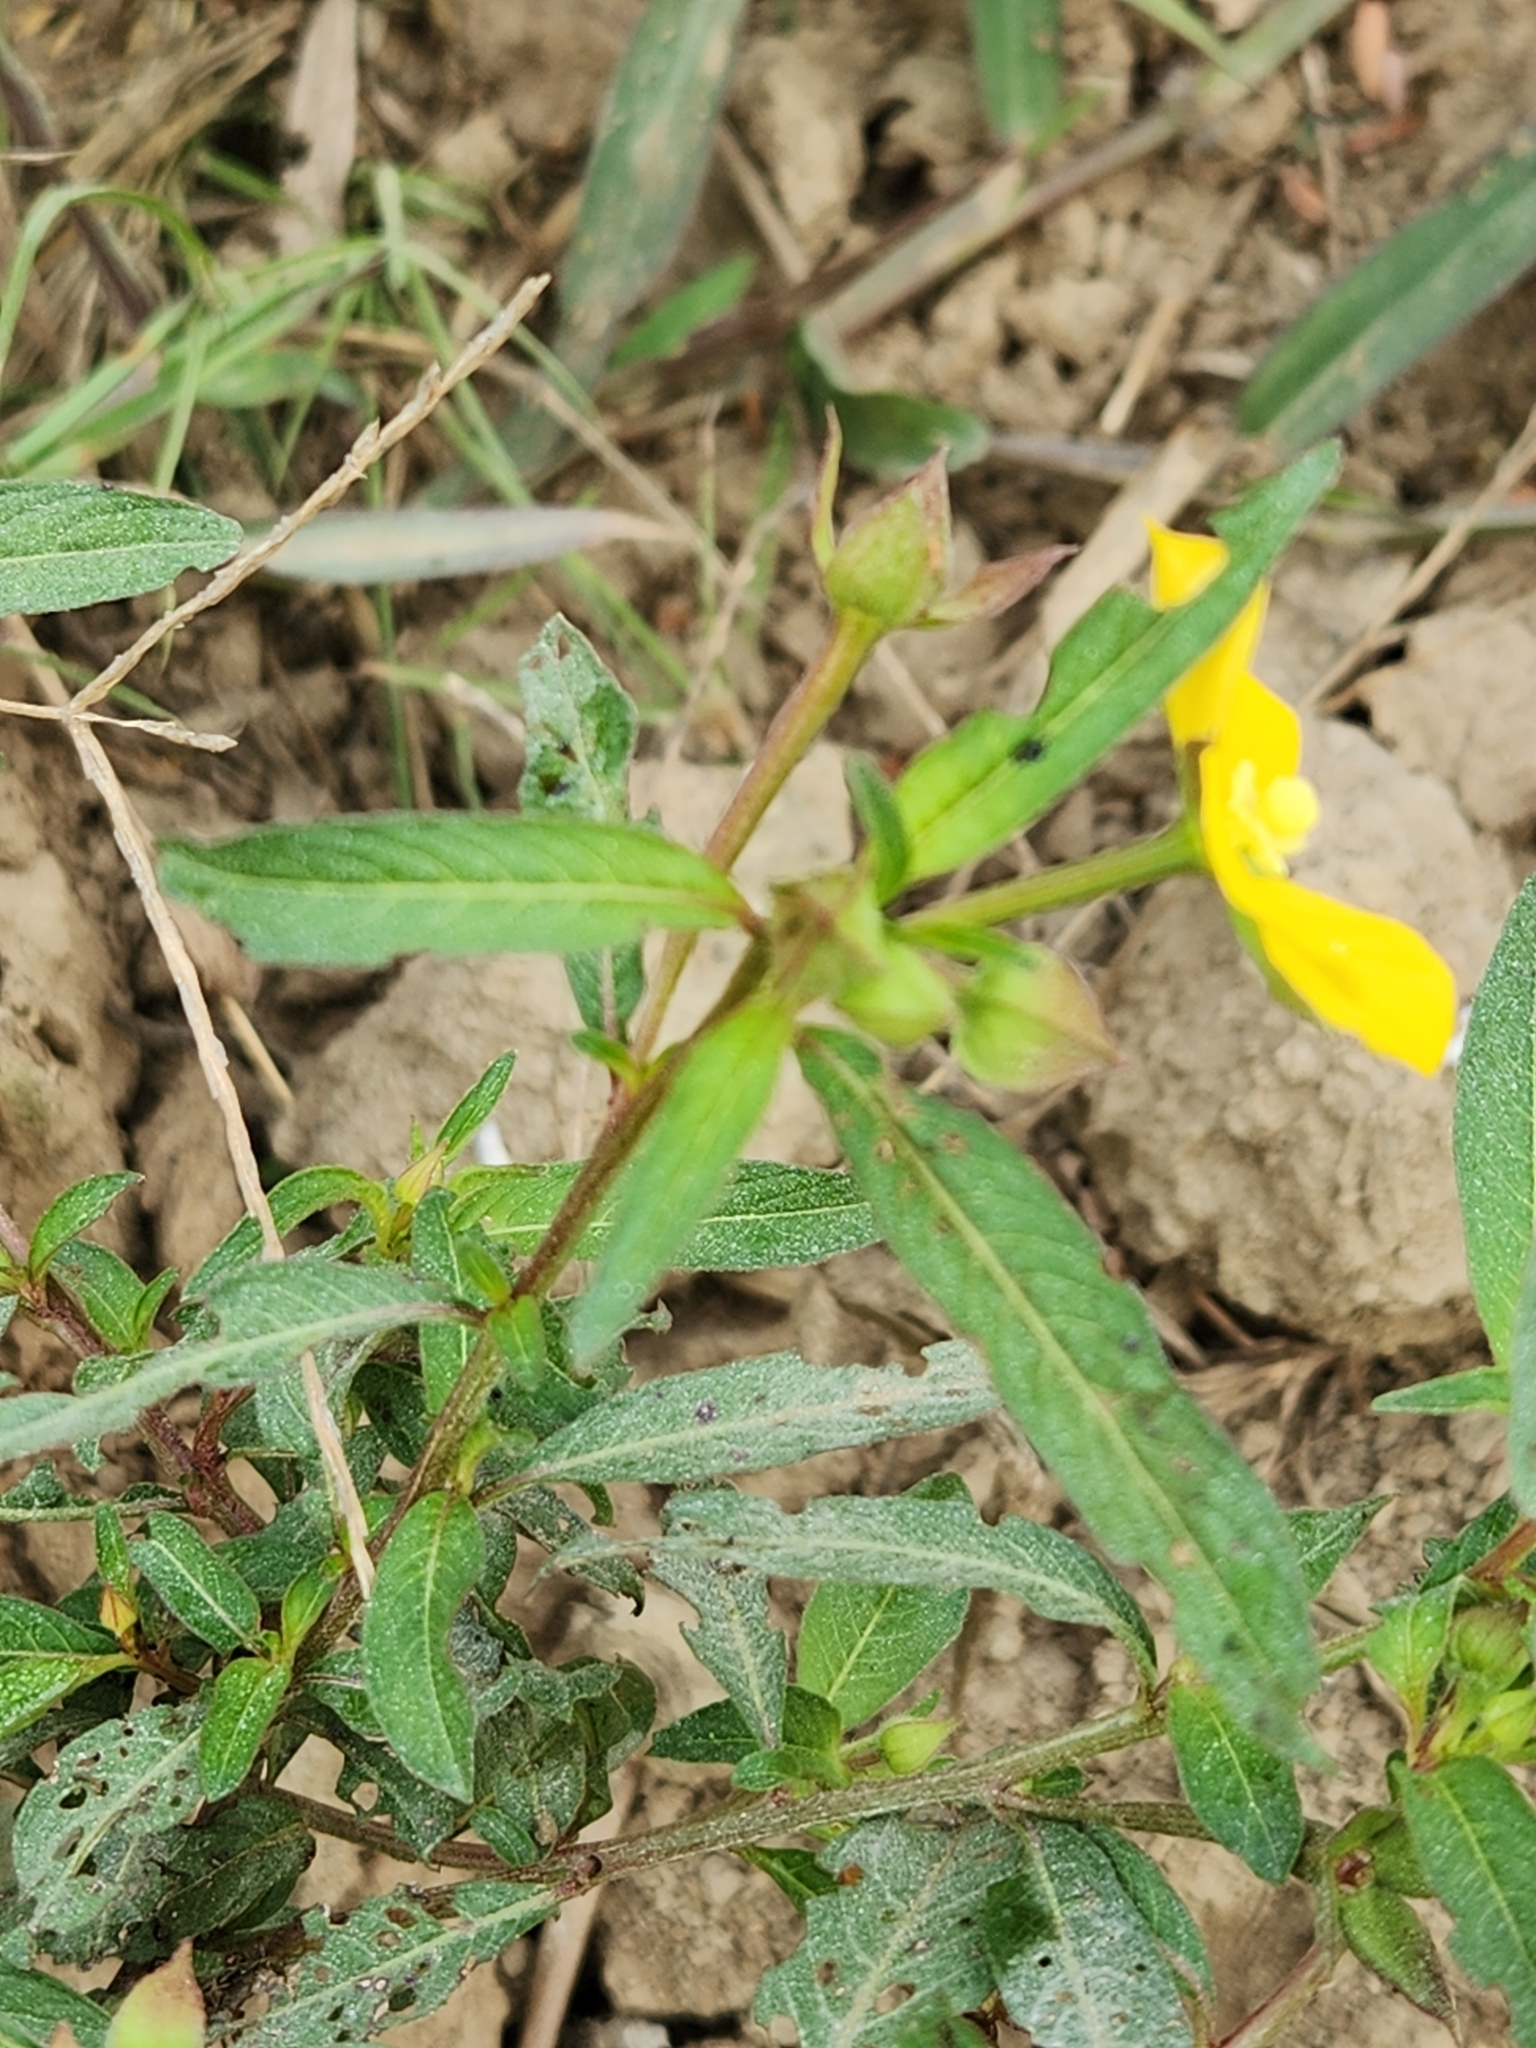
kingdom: Plantae
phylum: Tracheophyta
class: Magnoliopsida
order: Myrtales
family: Onagraceae
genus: Ludwigia
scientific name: Ludwigia octovalvis
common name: Water-primrose
